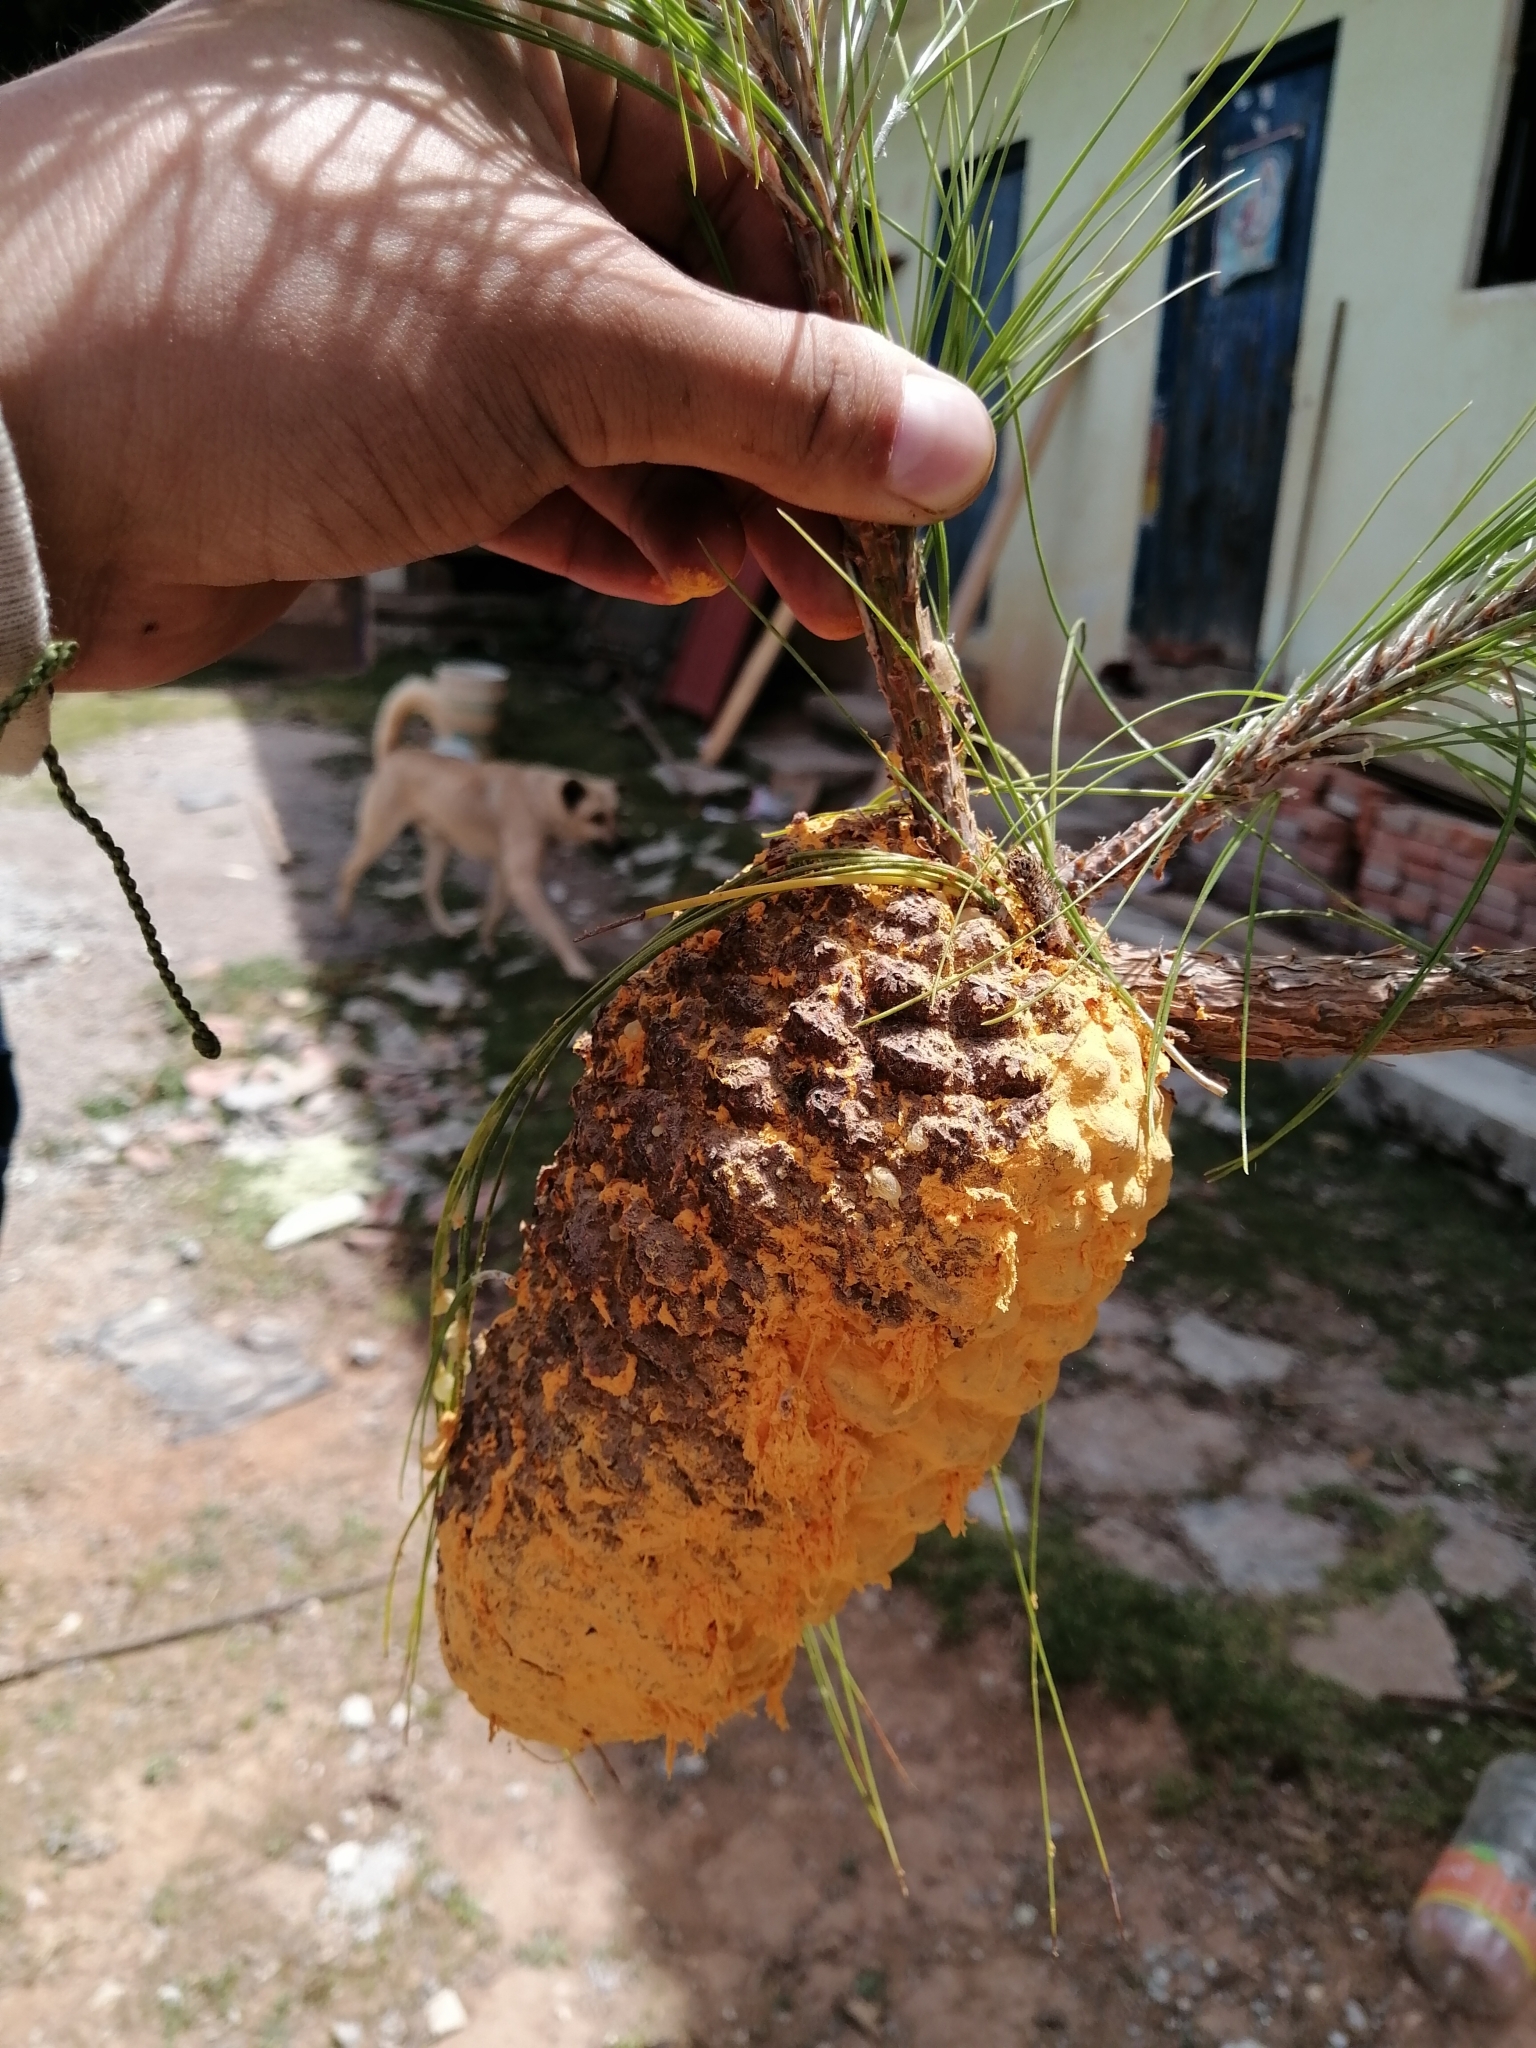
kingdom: Fungi
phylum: Basidiomycota
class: Pucciniomycetes
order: Pucciniales
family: Cronartiaceae
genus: Cronartium
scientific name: Cronartium conigenum
